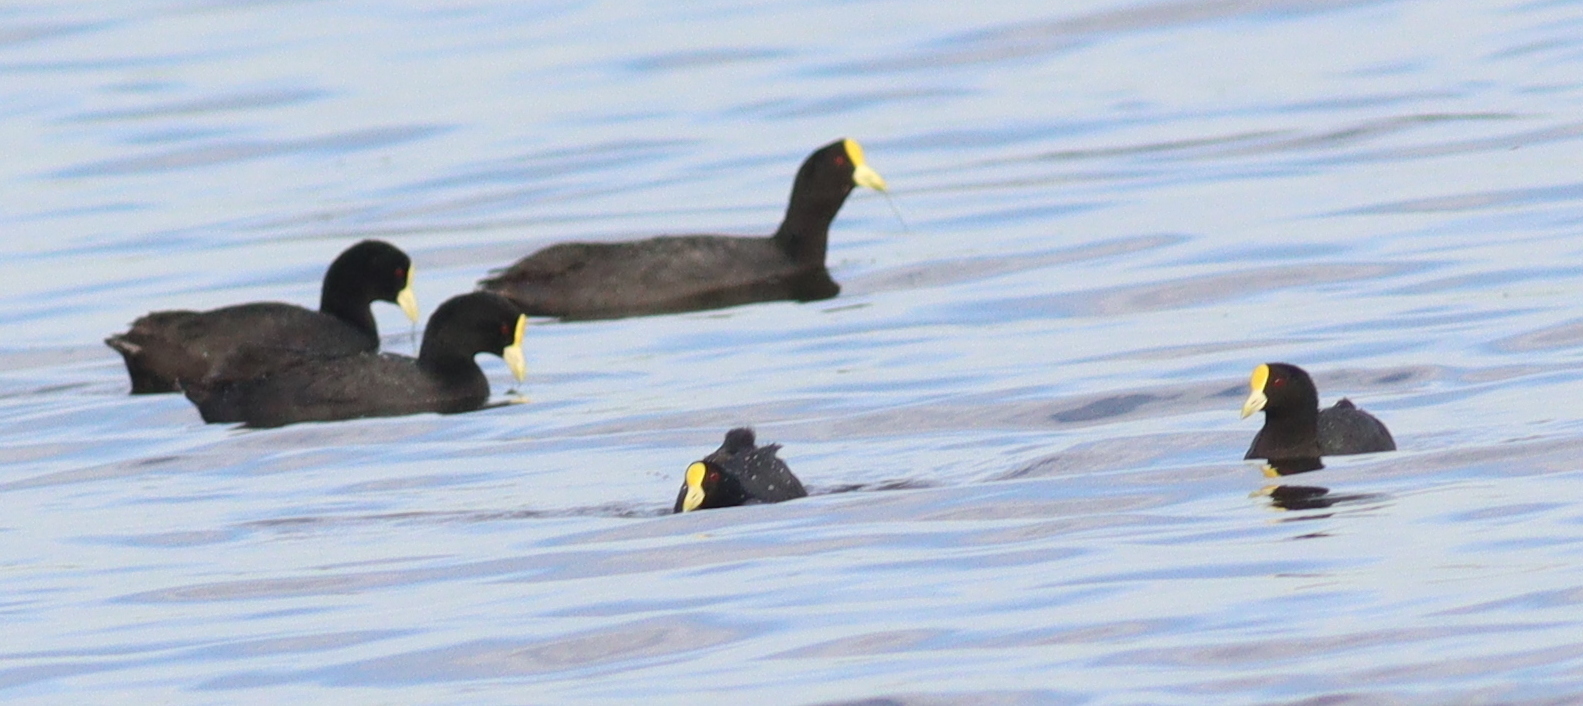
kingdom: Animalia
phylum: Chordata
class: Aves
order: Gruiformes
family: Rallidae
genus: Fulica
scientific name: Fulica leucoptera
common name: White-winged coot
